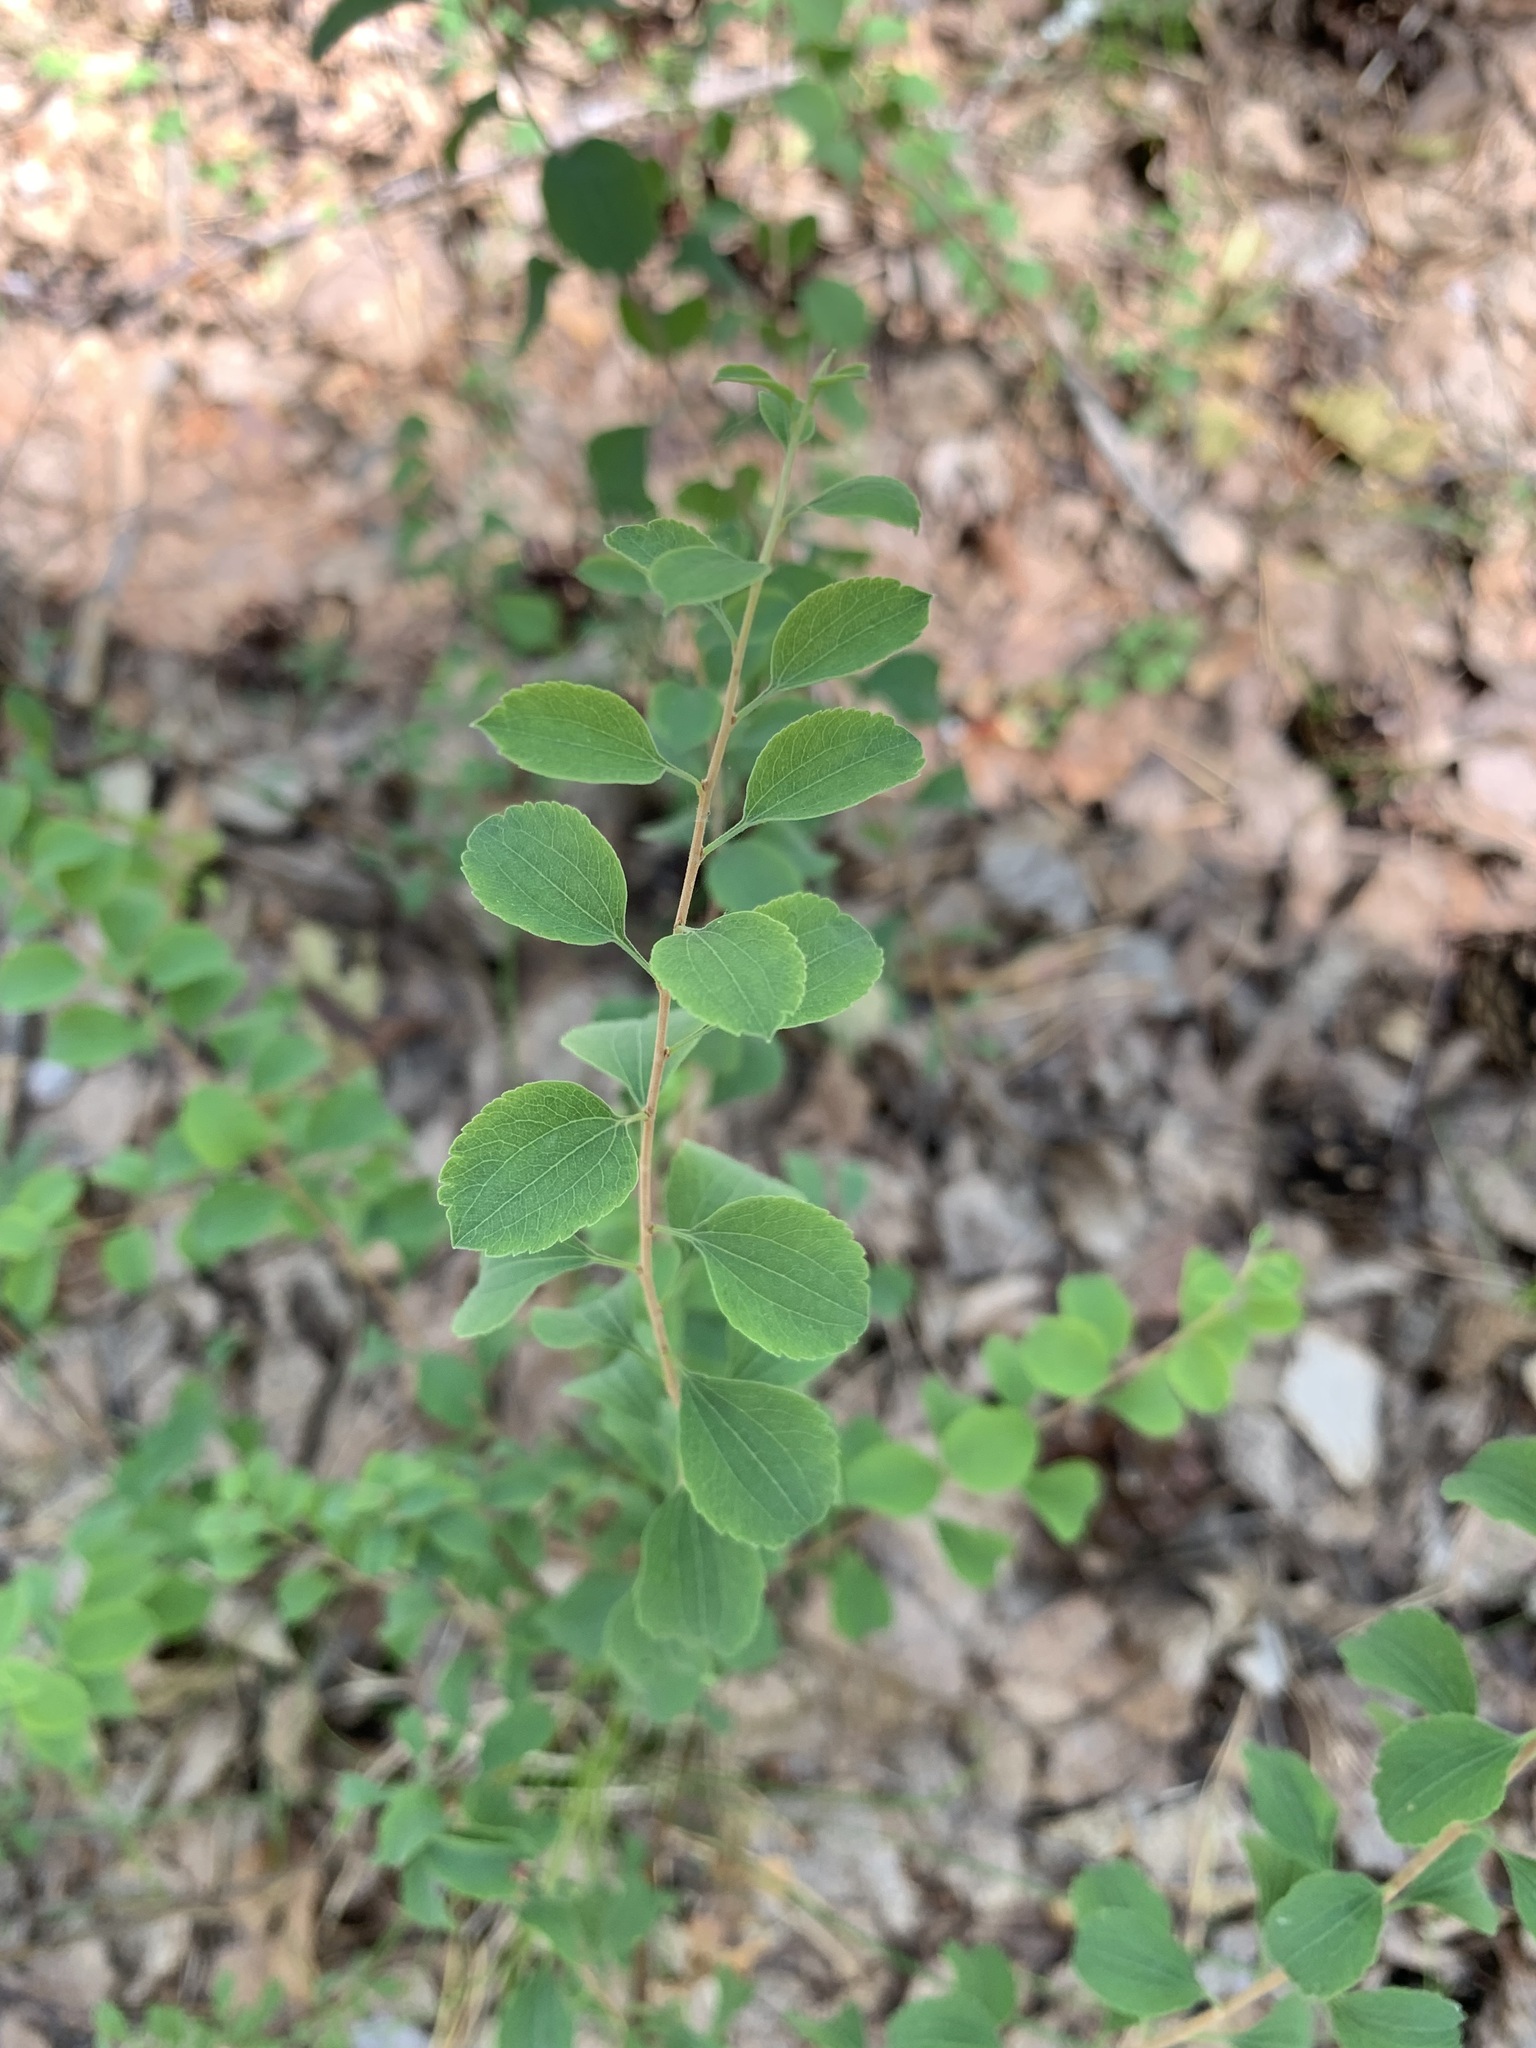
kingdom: Plantae
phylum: Tracheophyta
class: Magnoliopsida
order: Rosales
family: Rosaceae
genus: Spiraea
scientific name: Spiraea crenata
